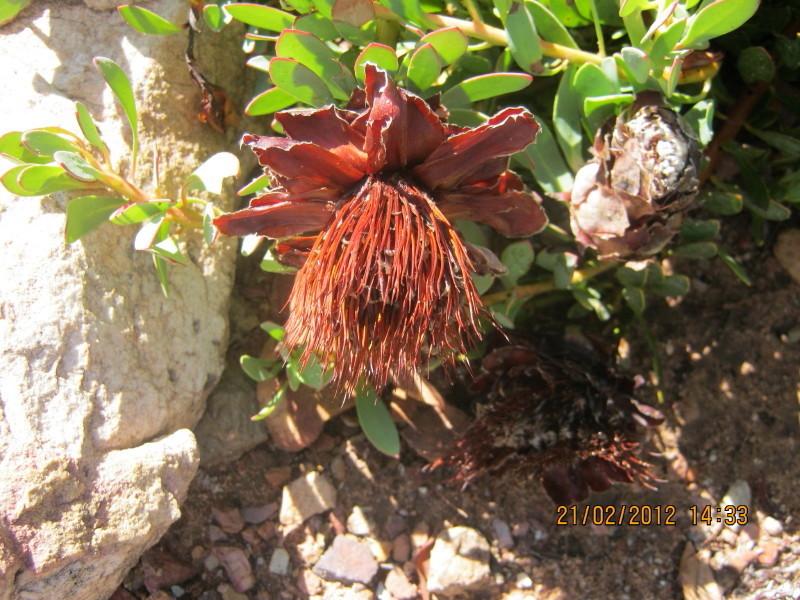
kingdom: Plantae
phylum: Tracheophyta
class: Magnoliopsida
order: Proteales
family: Proteaceae
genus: Protea
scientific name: Protea venusta
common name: Cascade sugarbush
